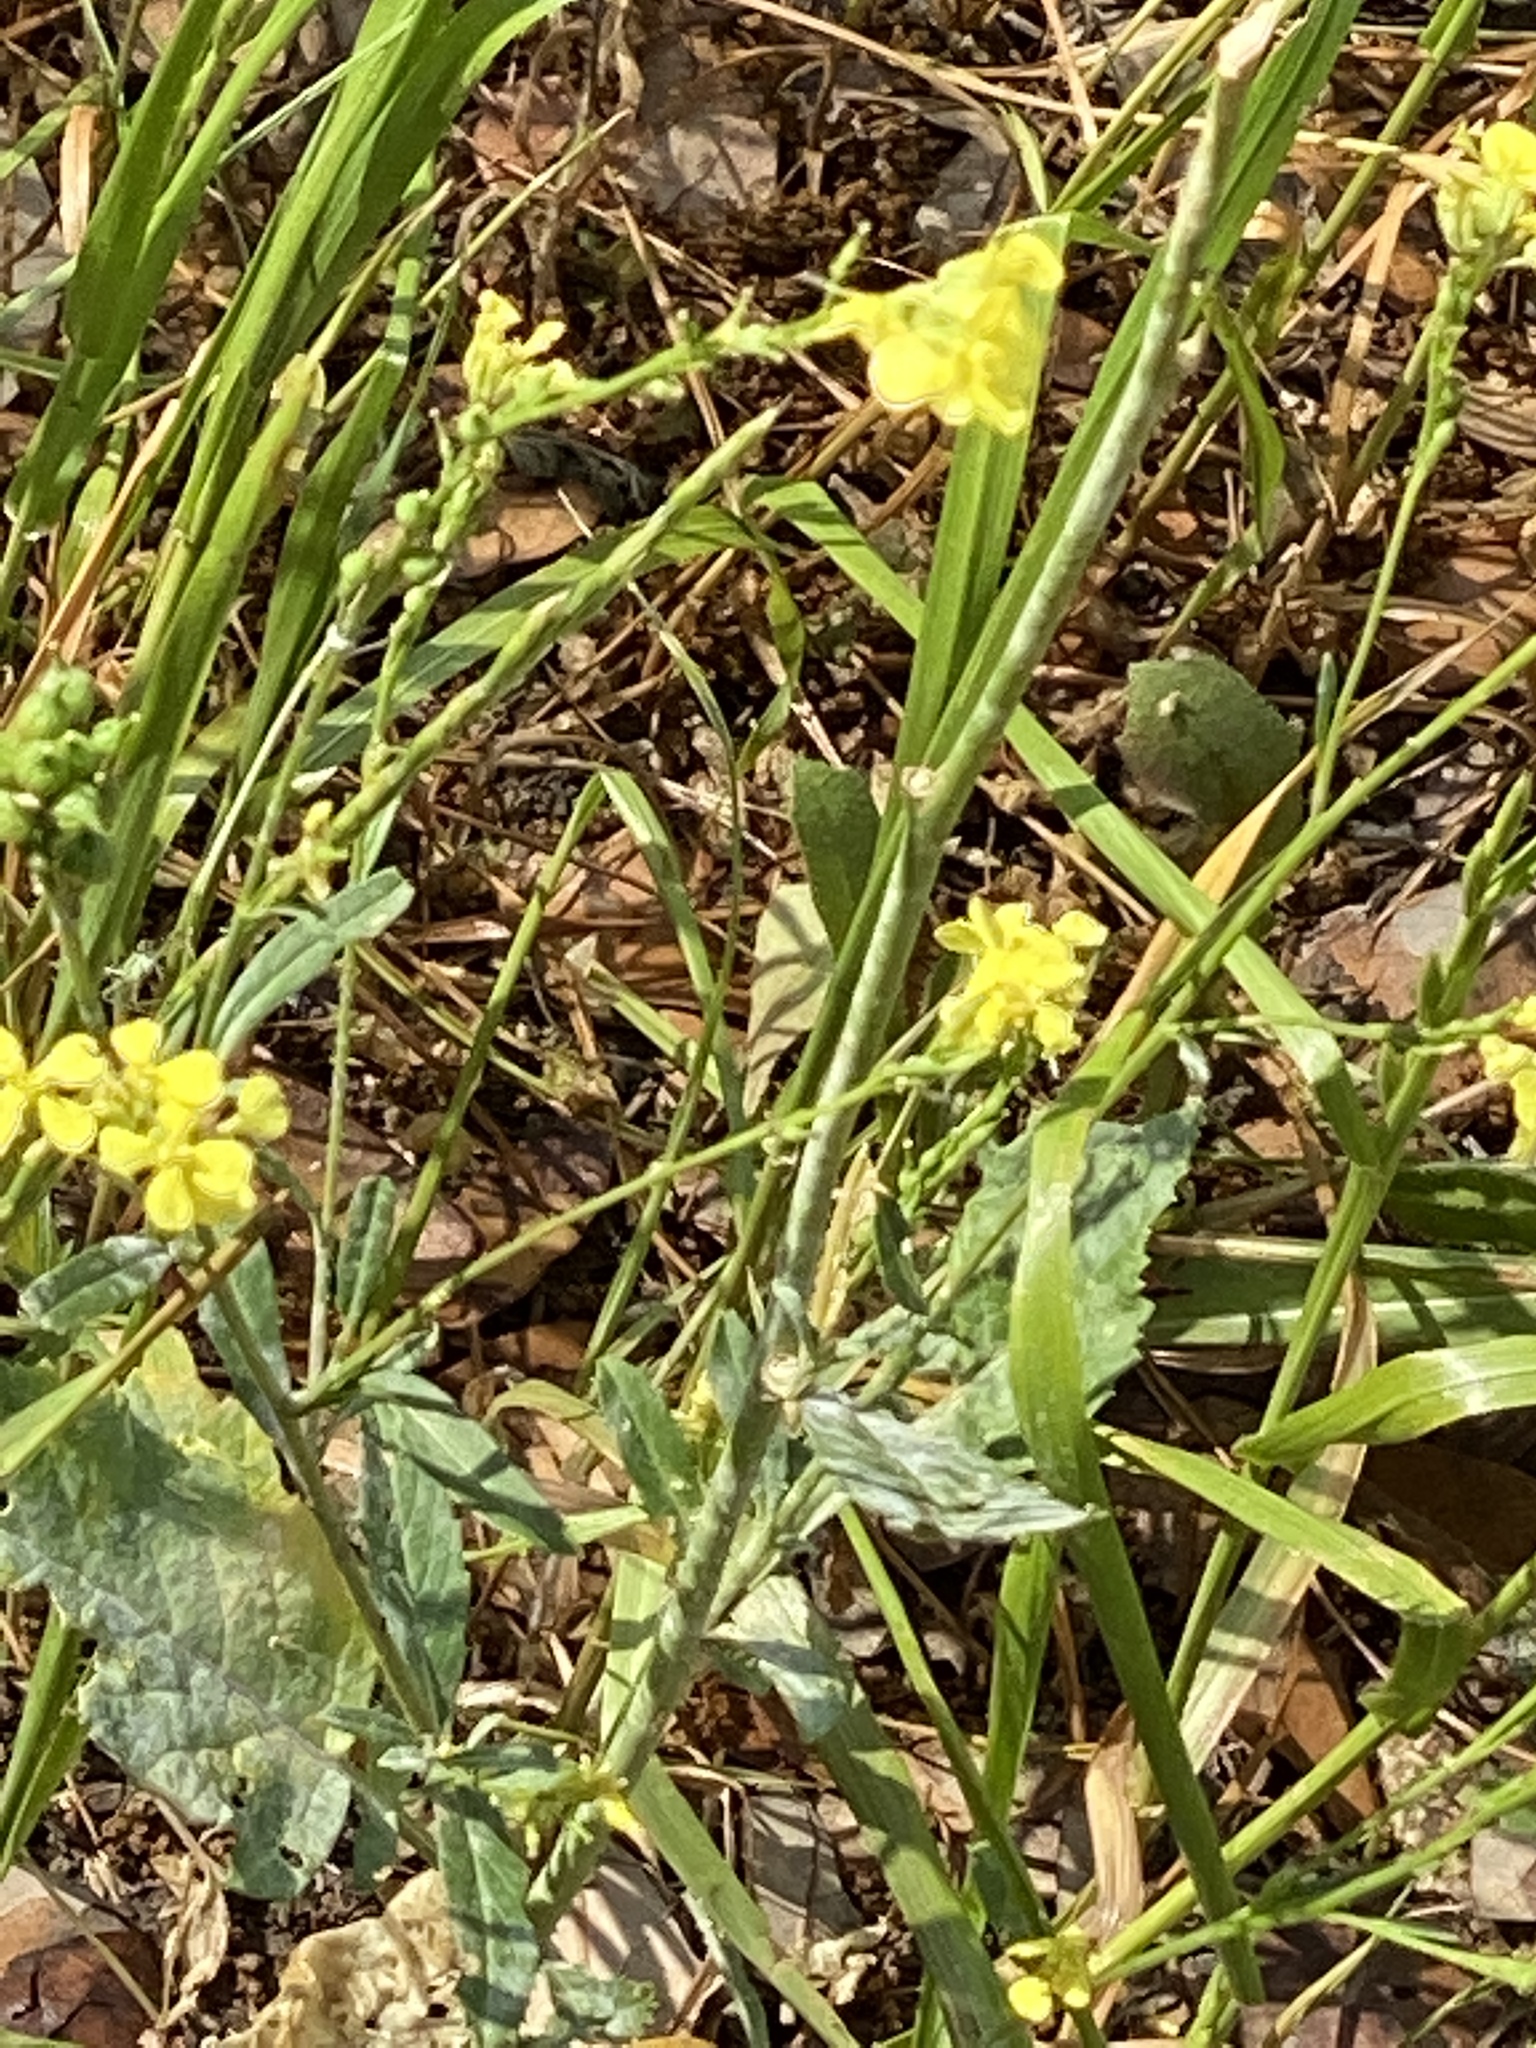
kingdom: Plantae
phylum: Tracheophyta
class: Magnoliopsida
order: Brassicales
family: Brassicaceae
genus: Rapistrum
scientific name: Rapistrum rugosum
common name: Annual bastardcabbage
